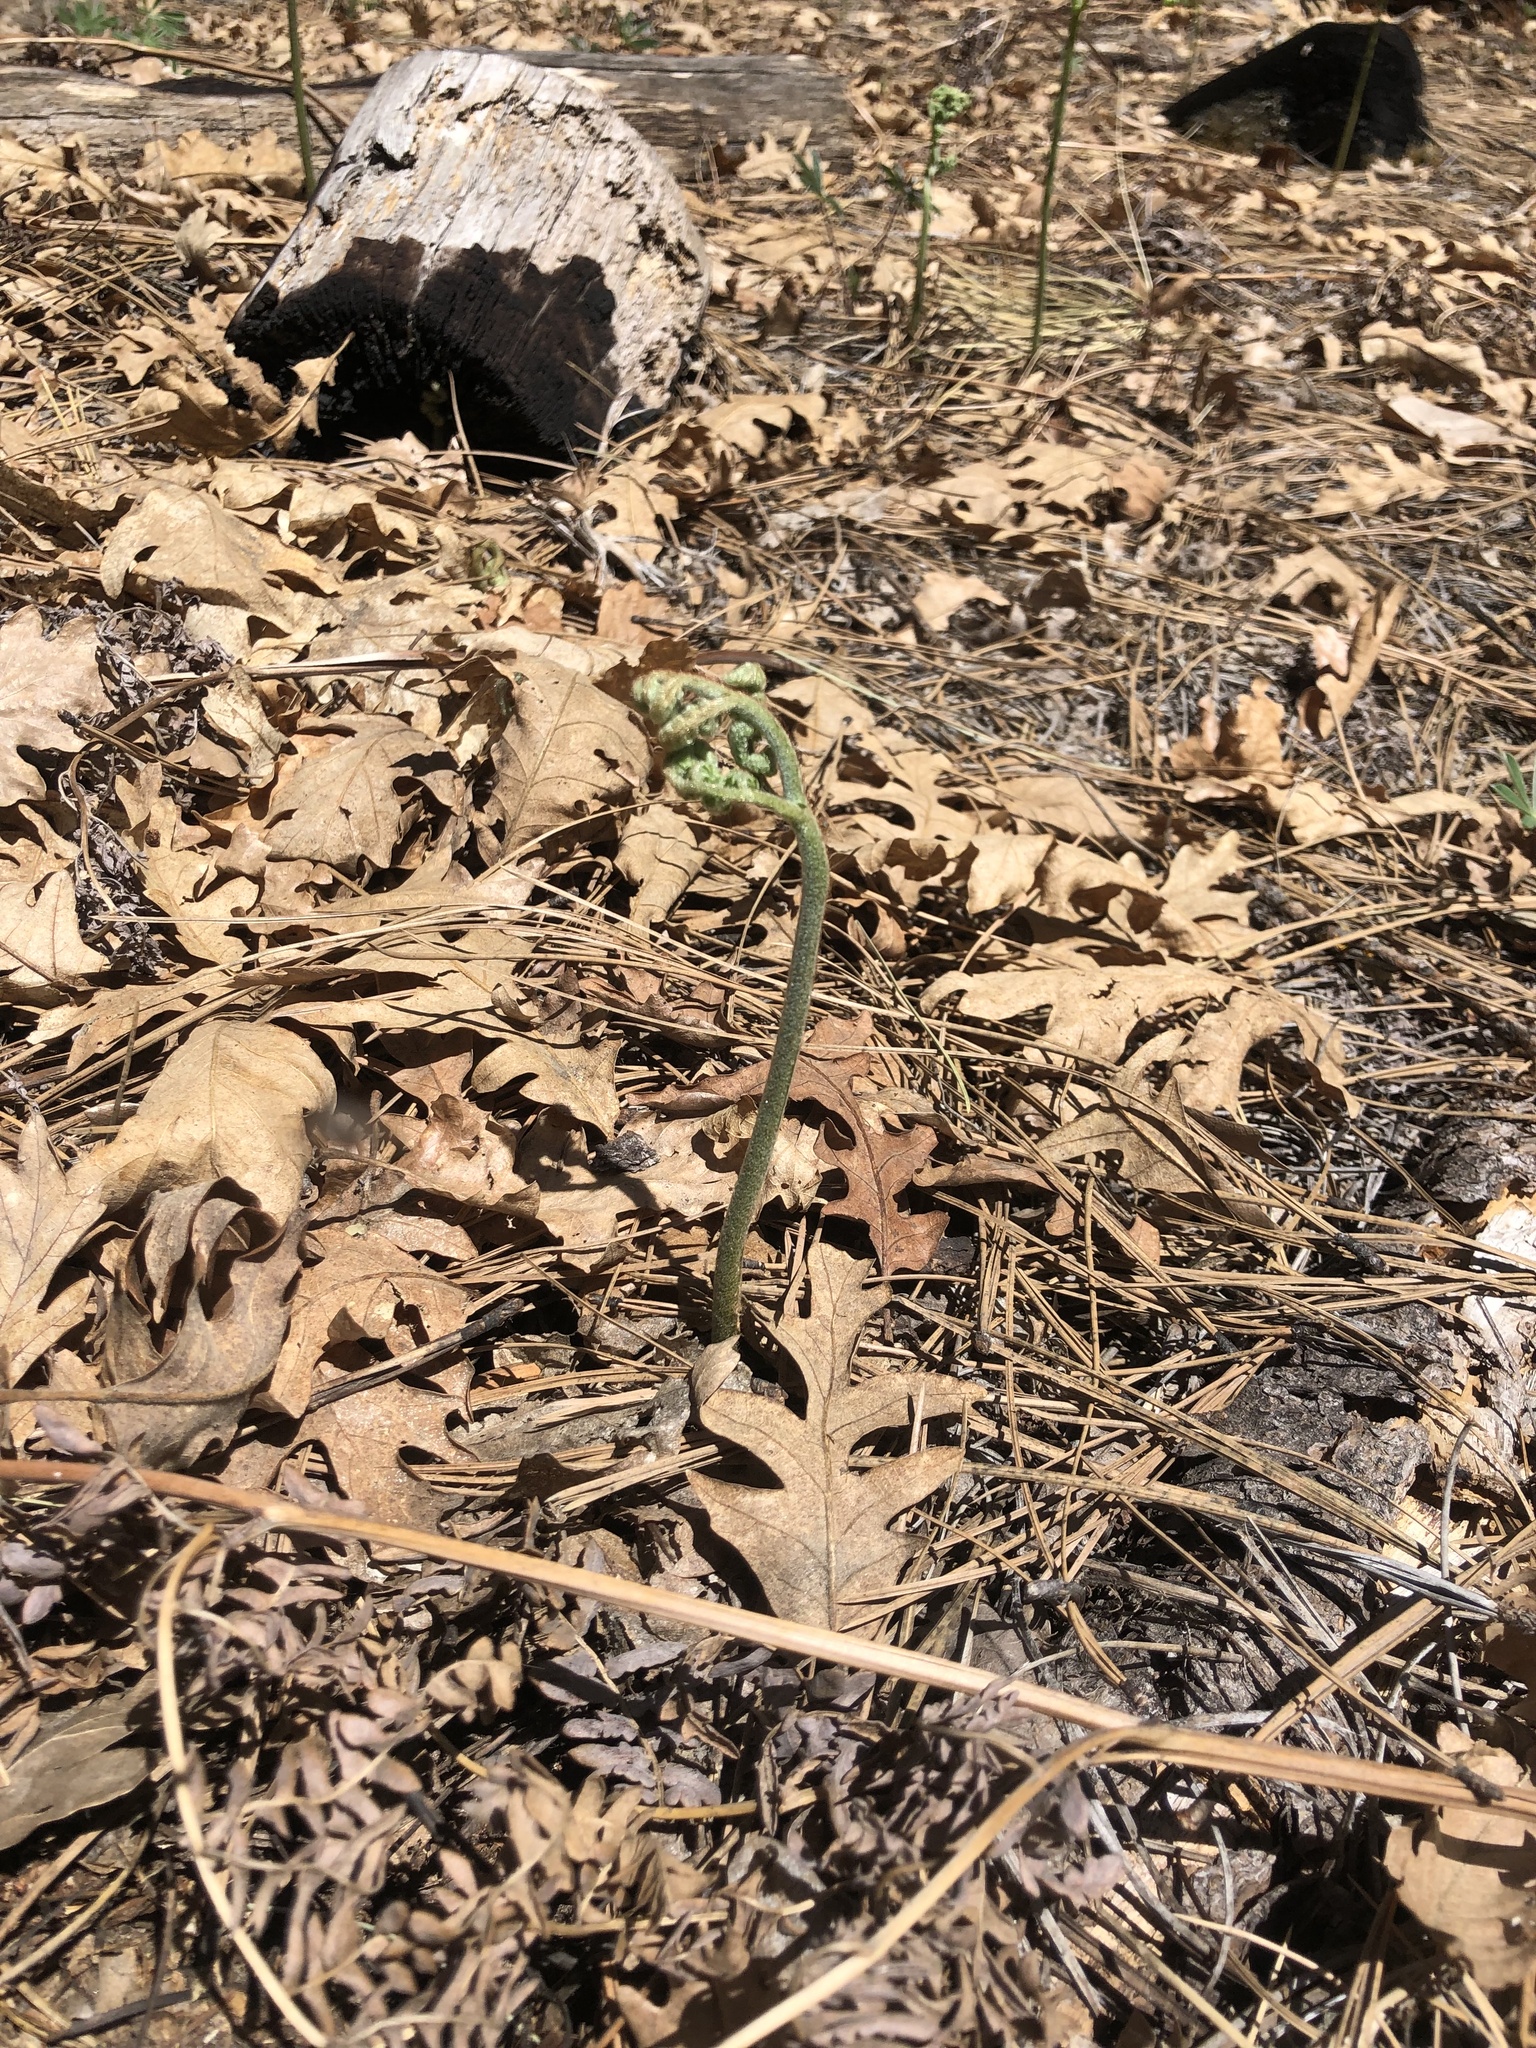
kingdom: Plantae
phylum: Tracheophyta
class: Polypodiopsida
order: Polypodiales
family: Dennstaedtiaceae
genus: Pteridium
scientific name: Pteridium aquilinum
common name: Bracken
